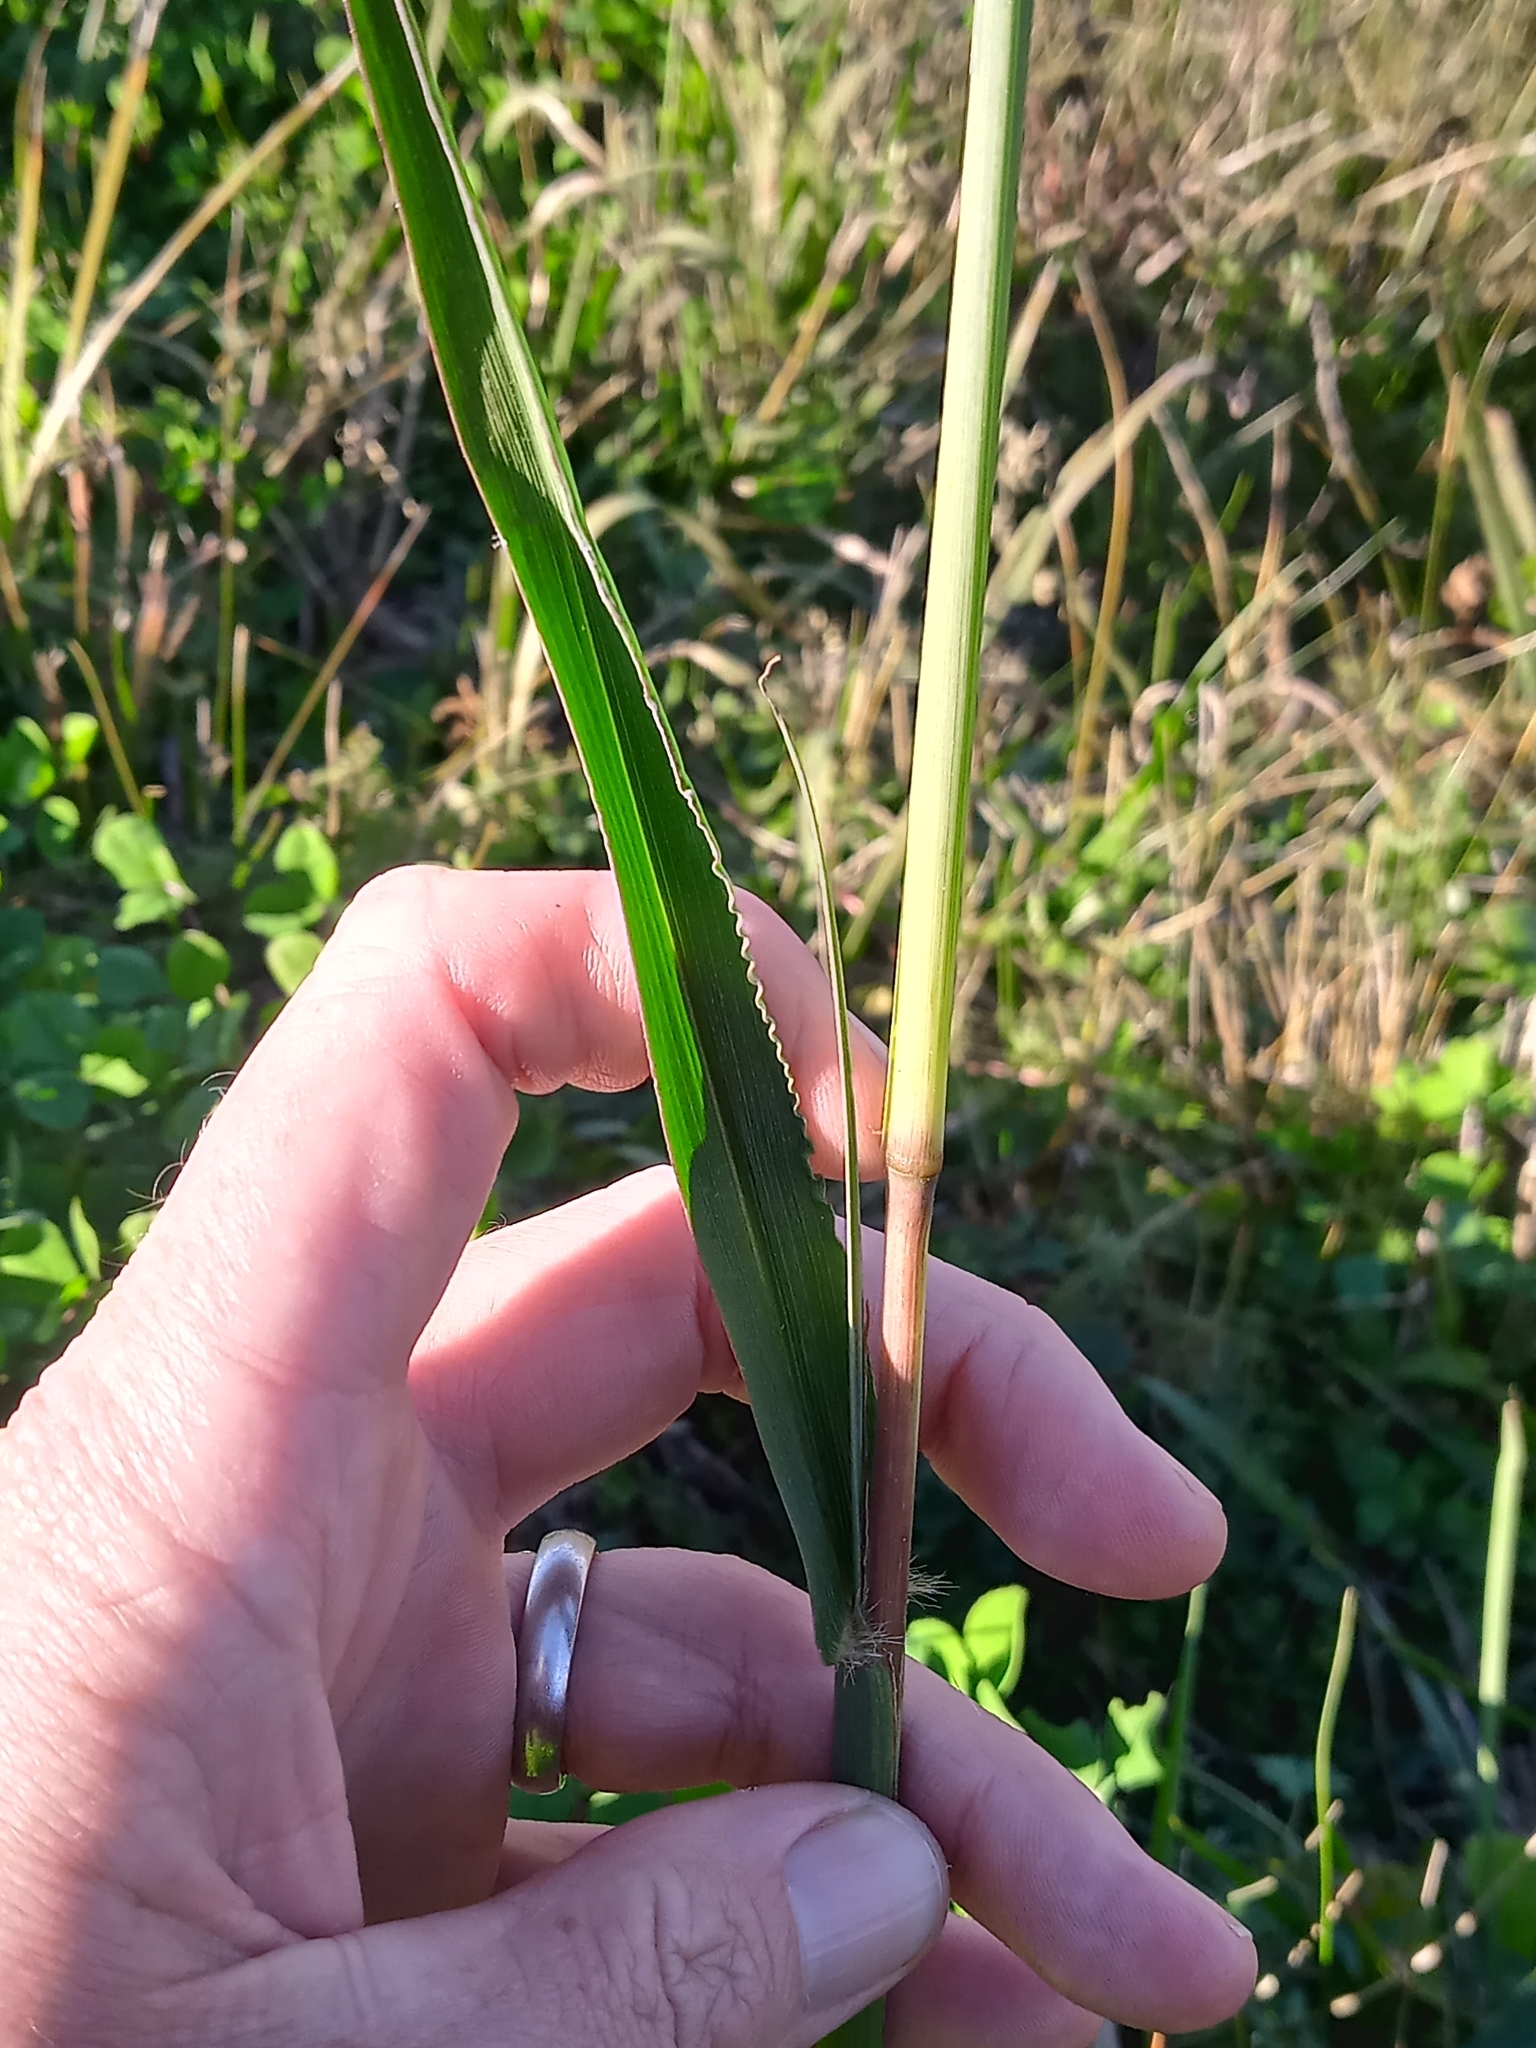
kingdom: Plantae
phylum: Tracheophyta
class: Liliopsida
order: Poales
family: Poaceae
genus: Paspalum
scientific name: Paspalum urvillei
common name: Vasey's grass
